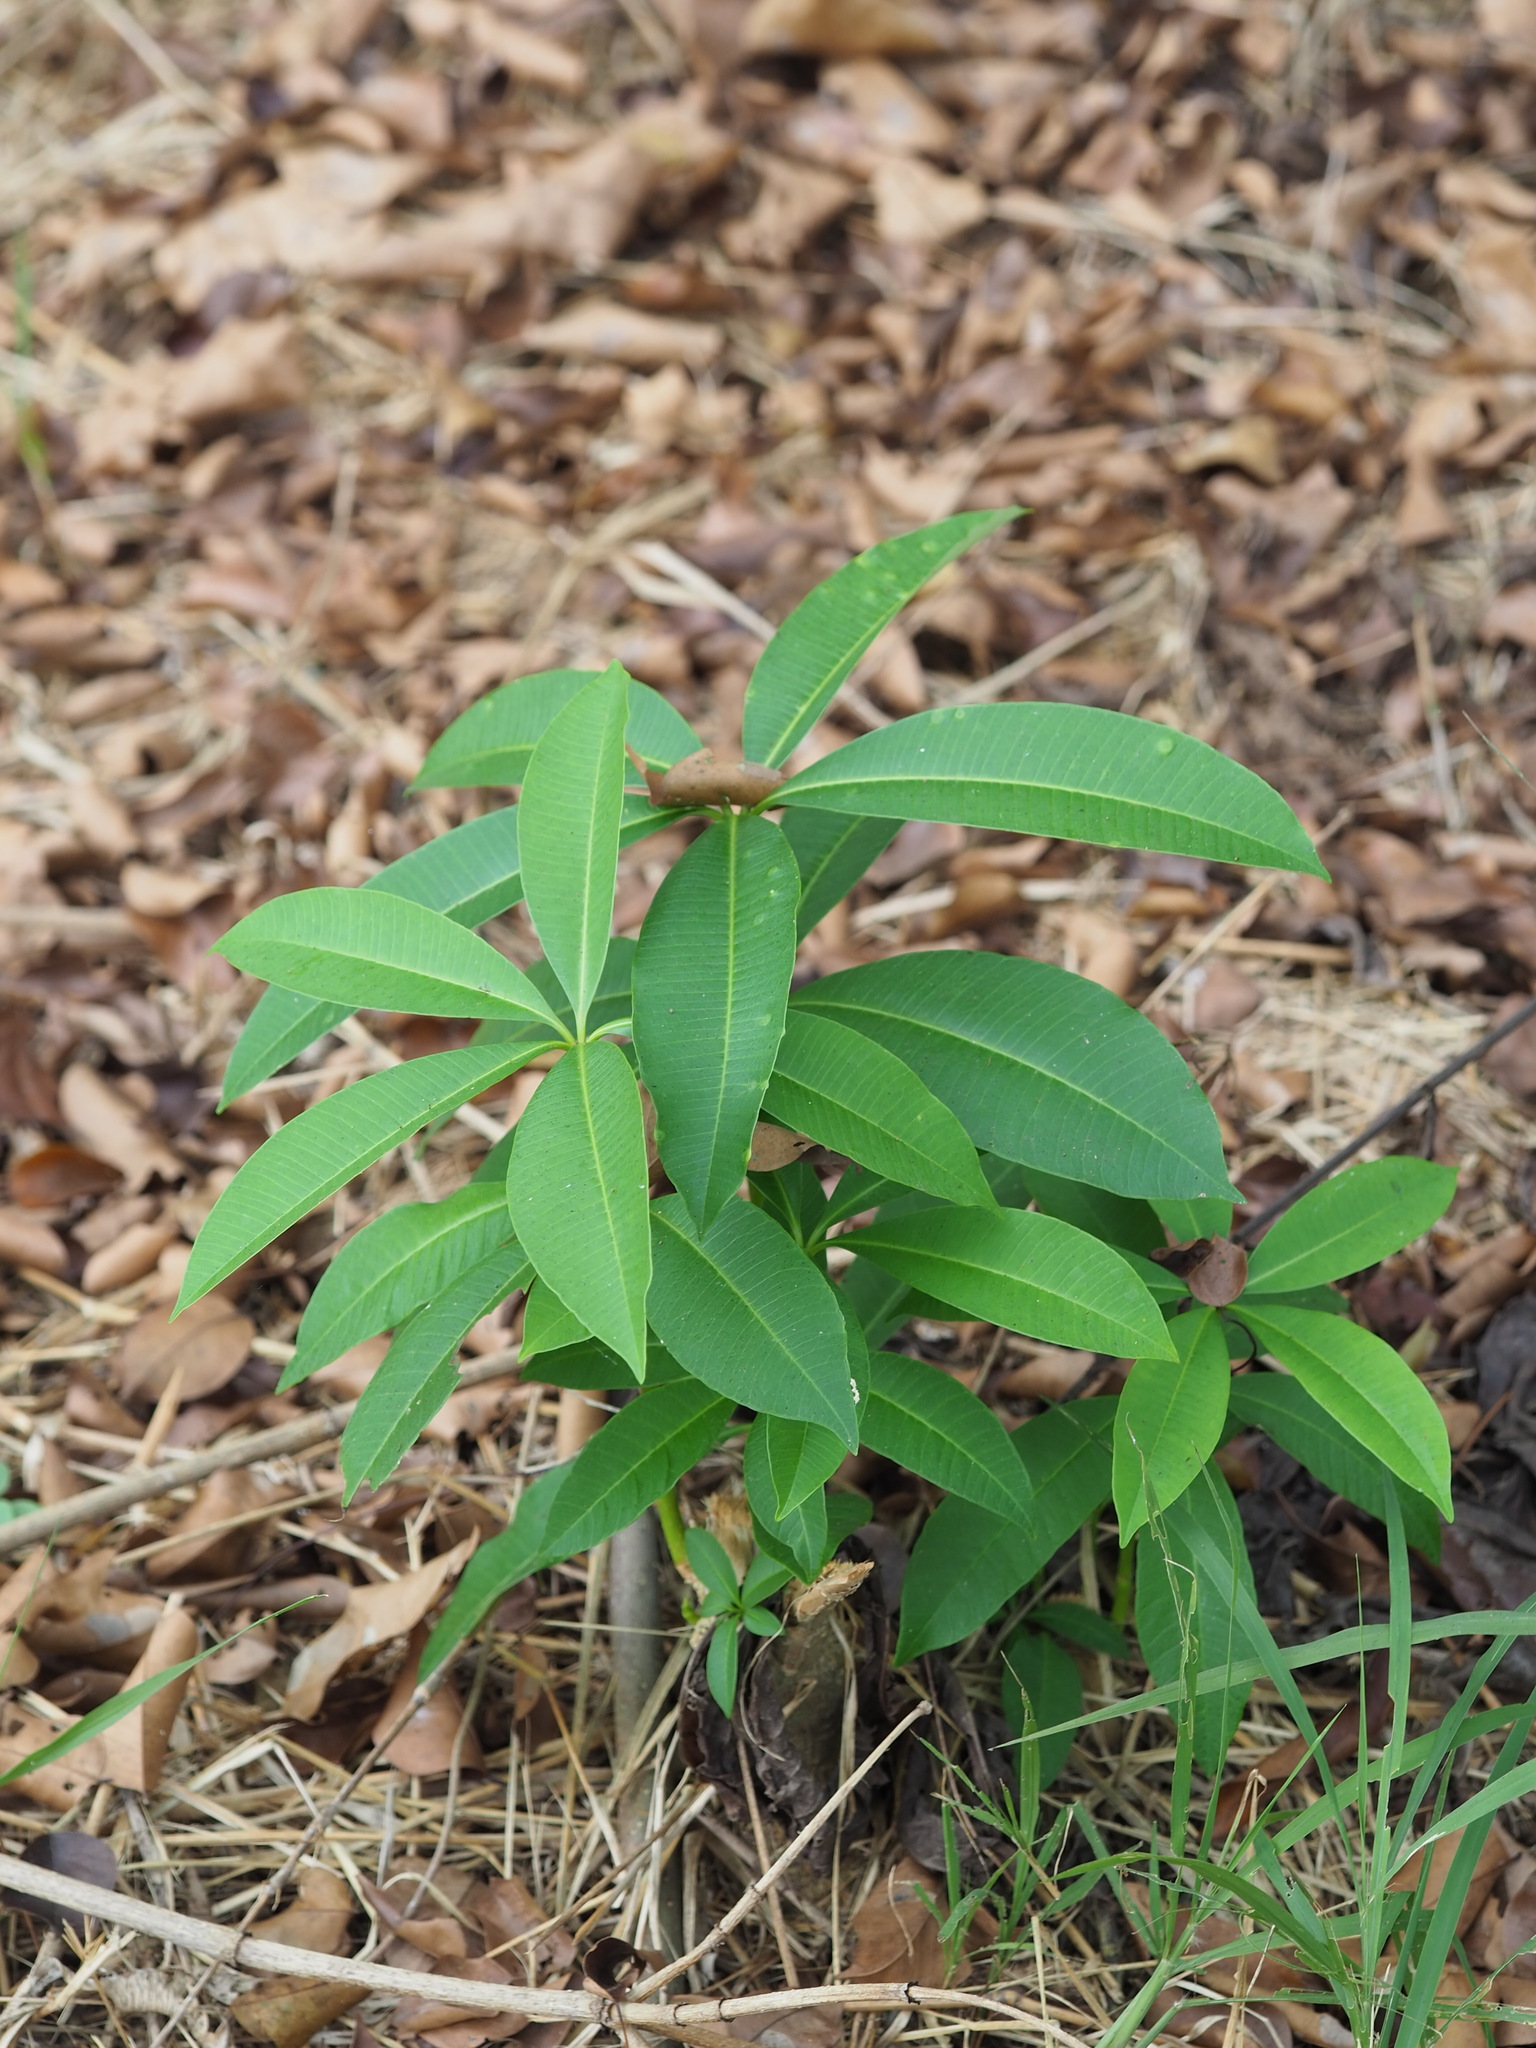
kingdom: Plantae
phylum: Tracheophyta
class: Magnoliopsida
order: Gentianales
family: Apocynaceae
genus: Alstonia
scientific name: Alstonia scholaris
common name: White cheesewood
